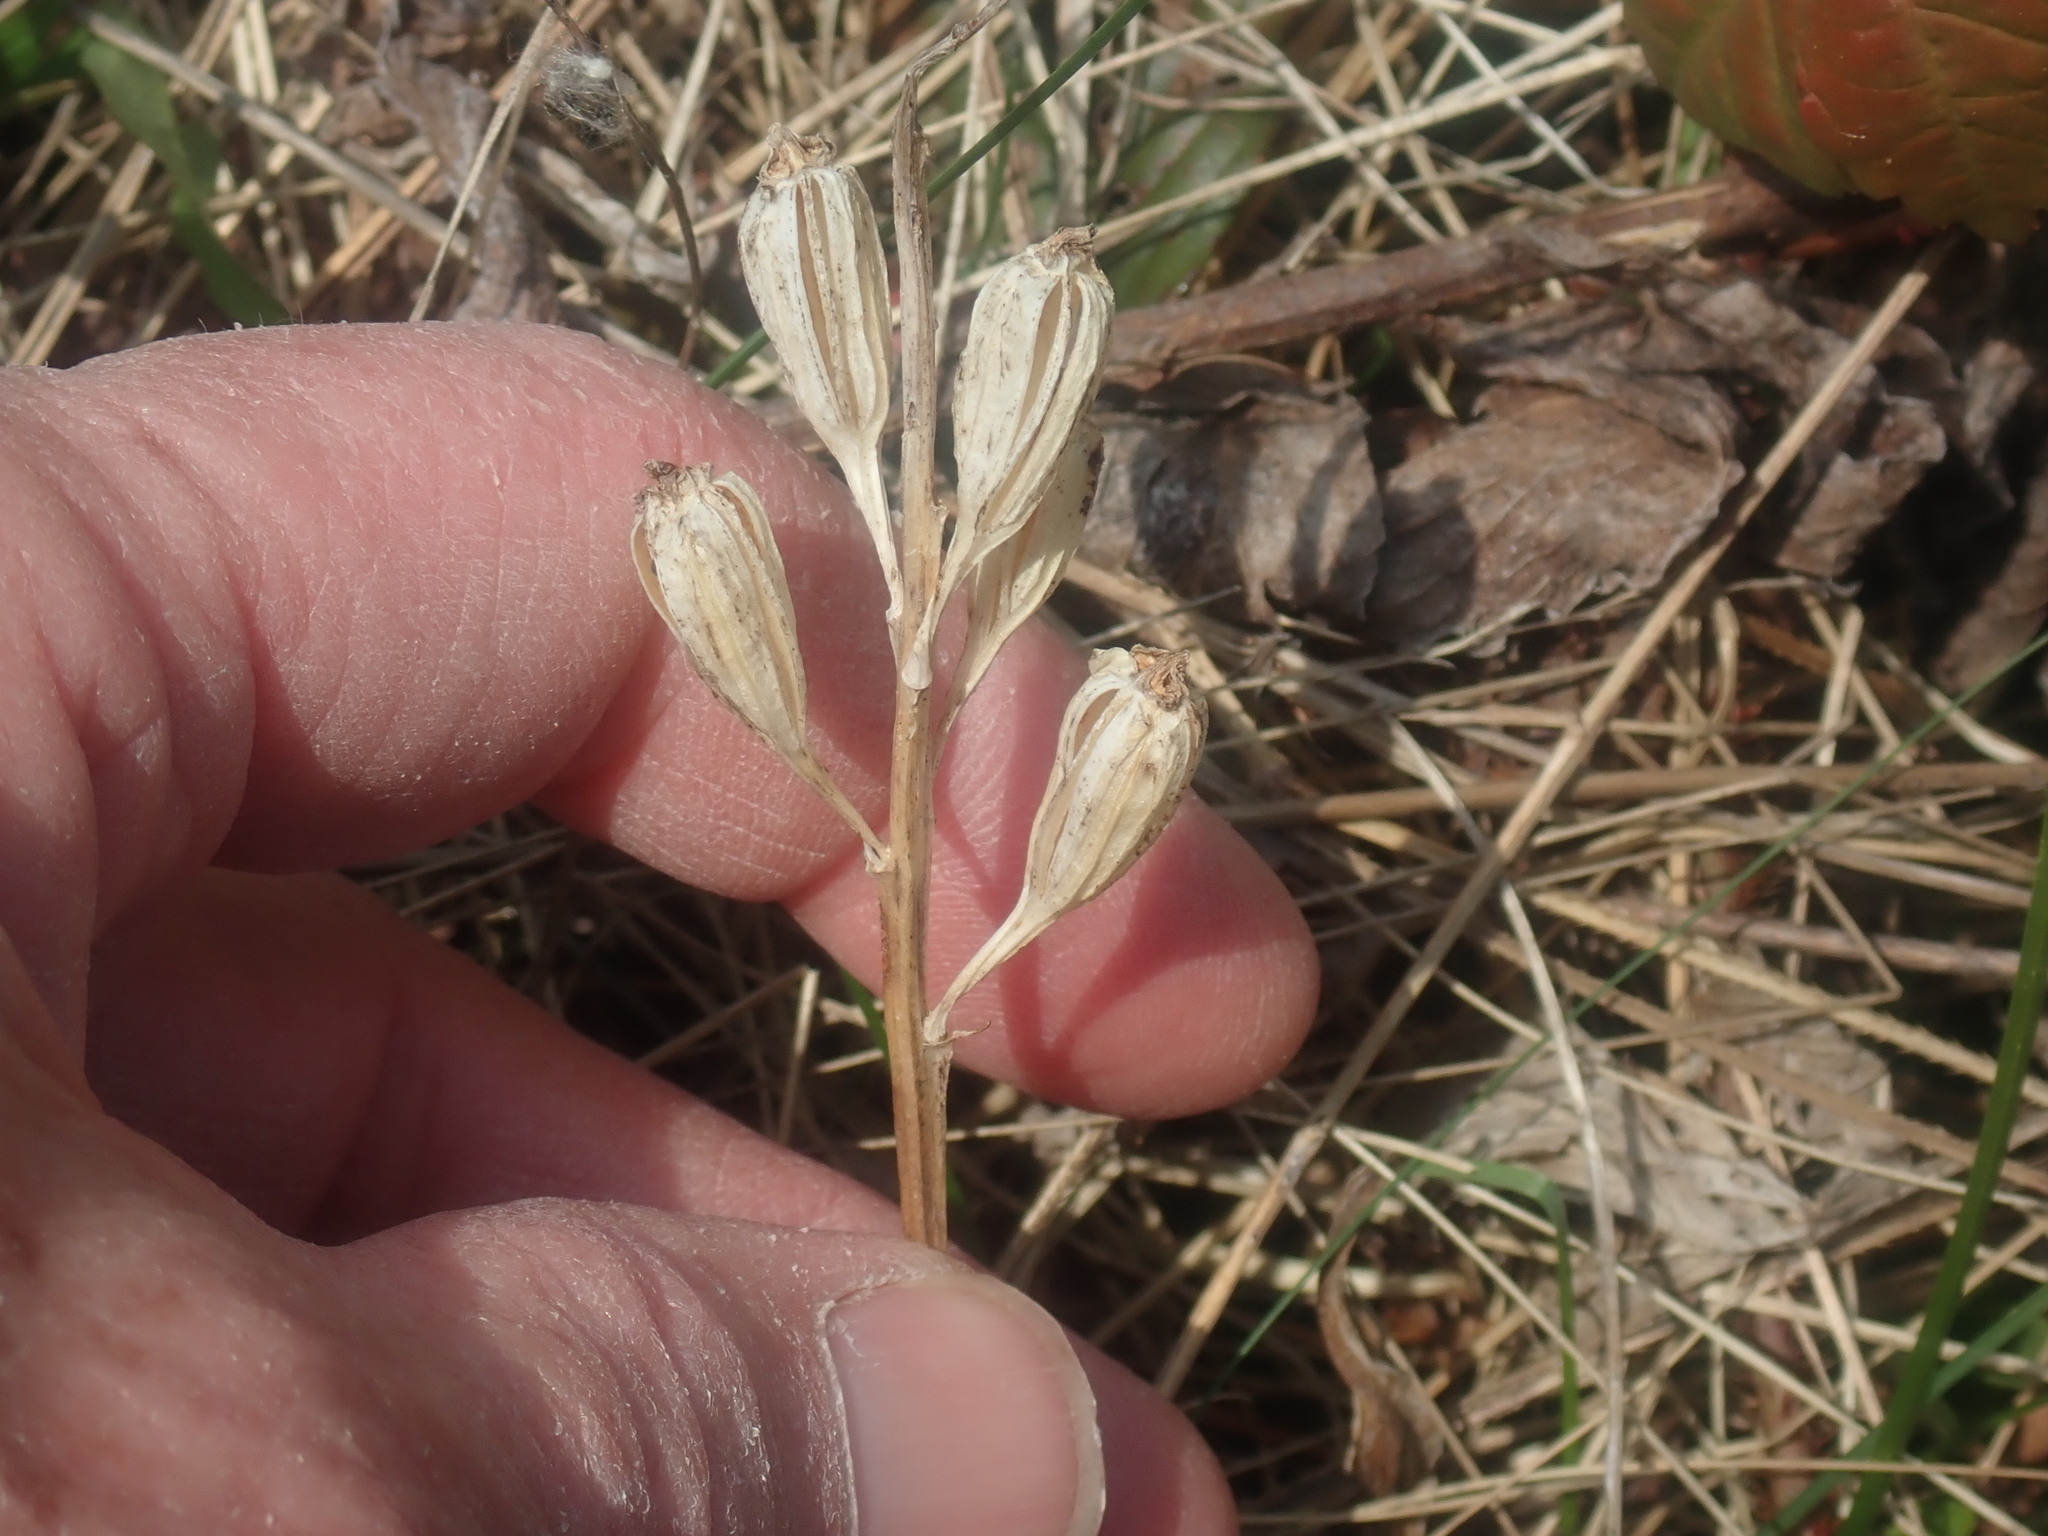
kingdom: Animalia
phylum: Arthropoda
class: Insecta
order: Coleoptera
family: Curculionidae
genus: Liparis
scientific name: Liparis loeselii
